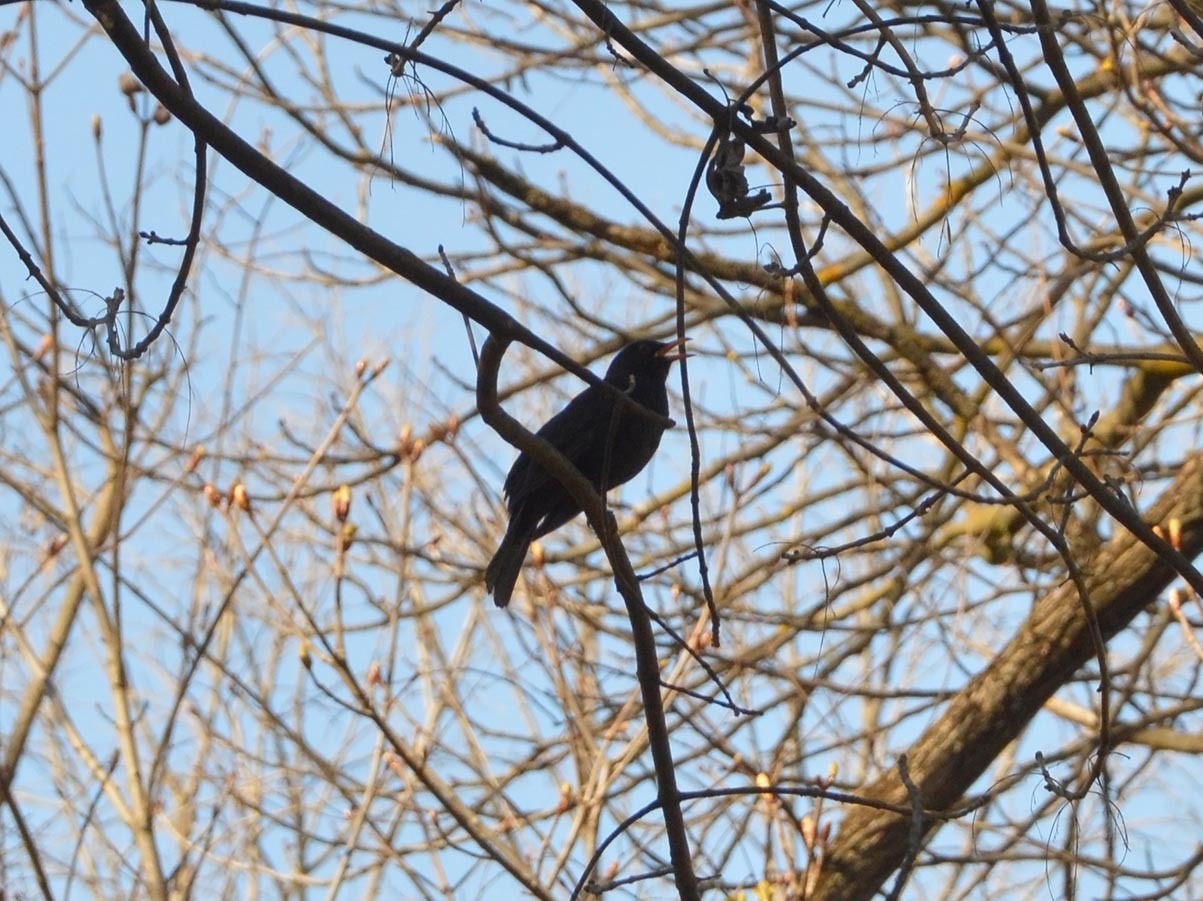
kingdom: Animalia
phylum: Chordata
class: Aves
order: Passeriformes
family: Turdidae
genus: Turdus
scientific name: Turdus merula
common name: Common blackbird
